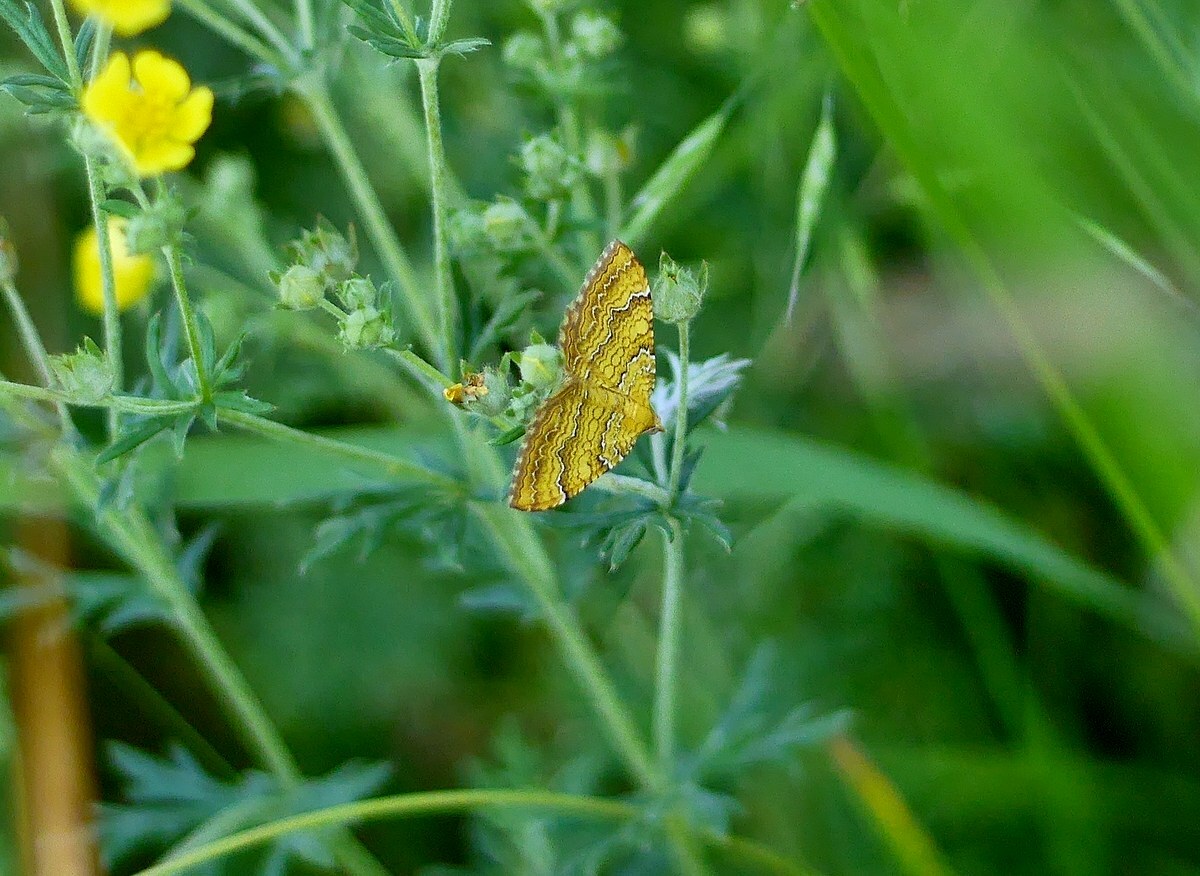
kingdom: Animalia
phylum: Arthropoda
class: Insecta
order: Lepidoptera
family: Geometridae
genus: Camptogramma
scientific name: Camptogramma bilineata
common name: Yellow shell
